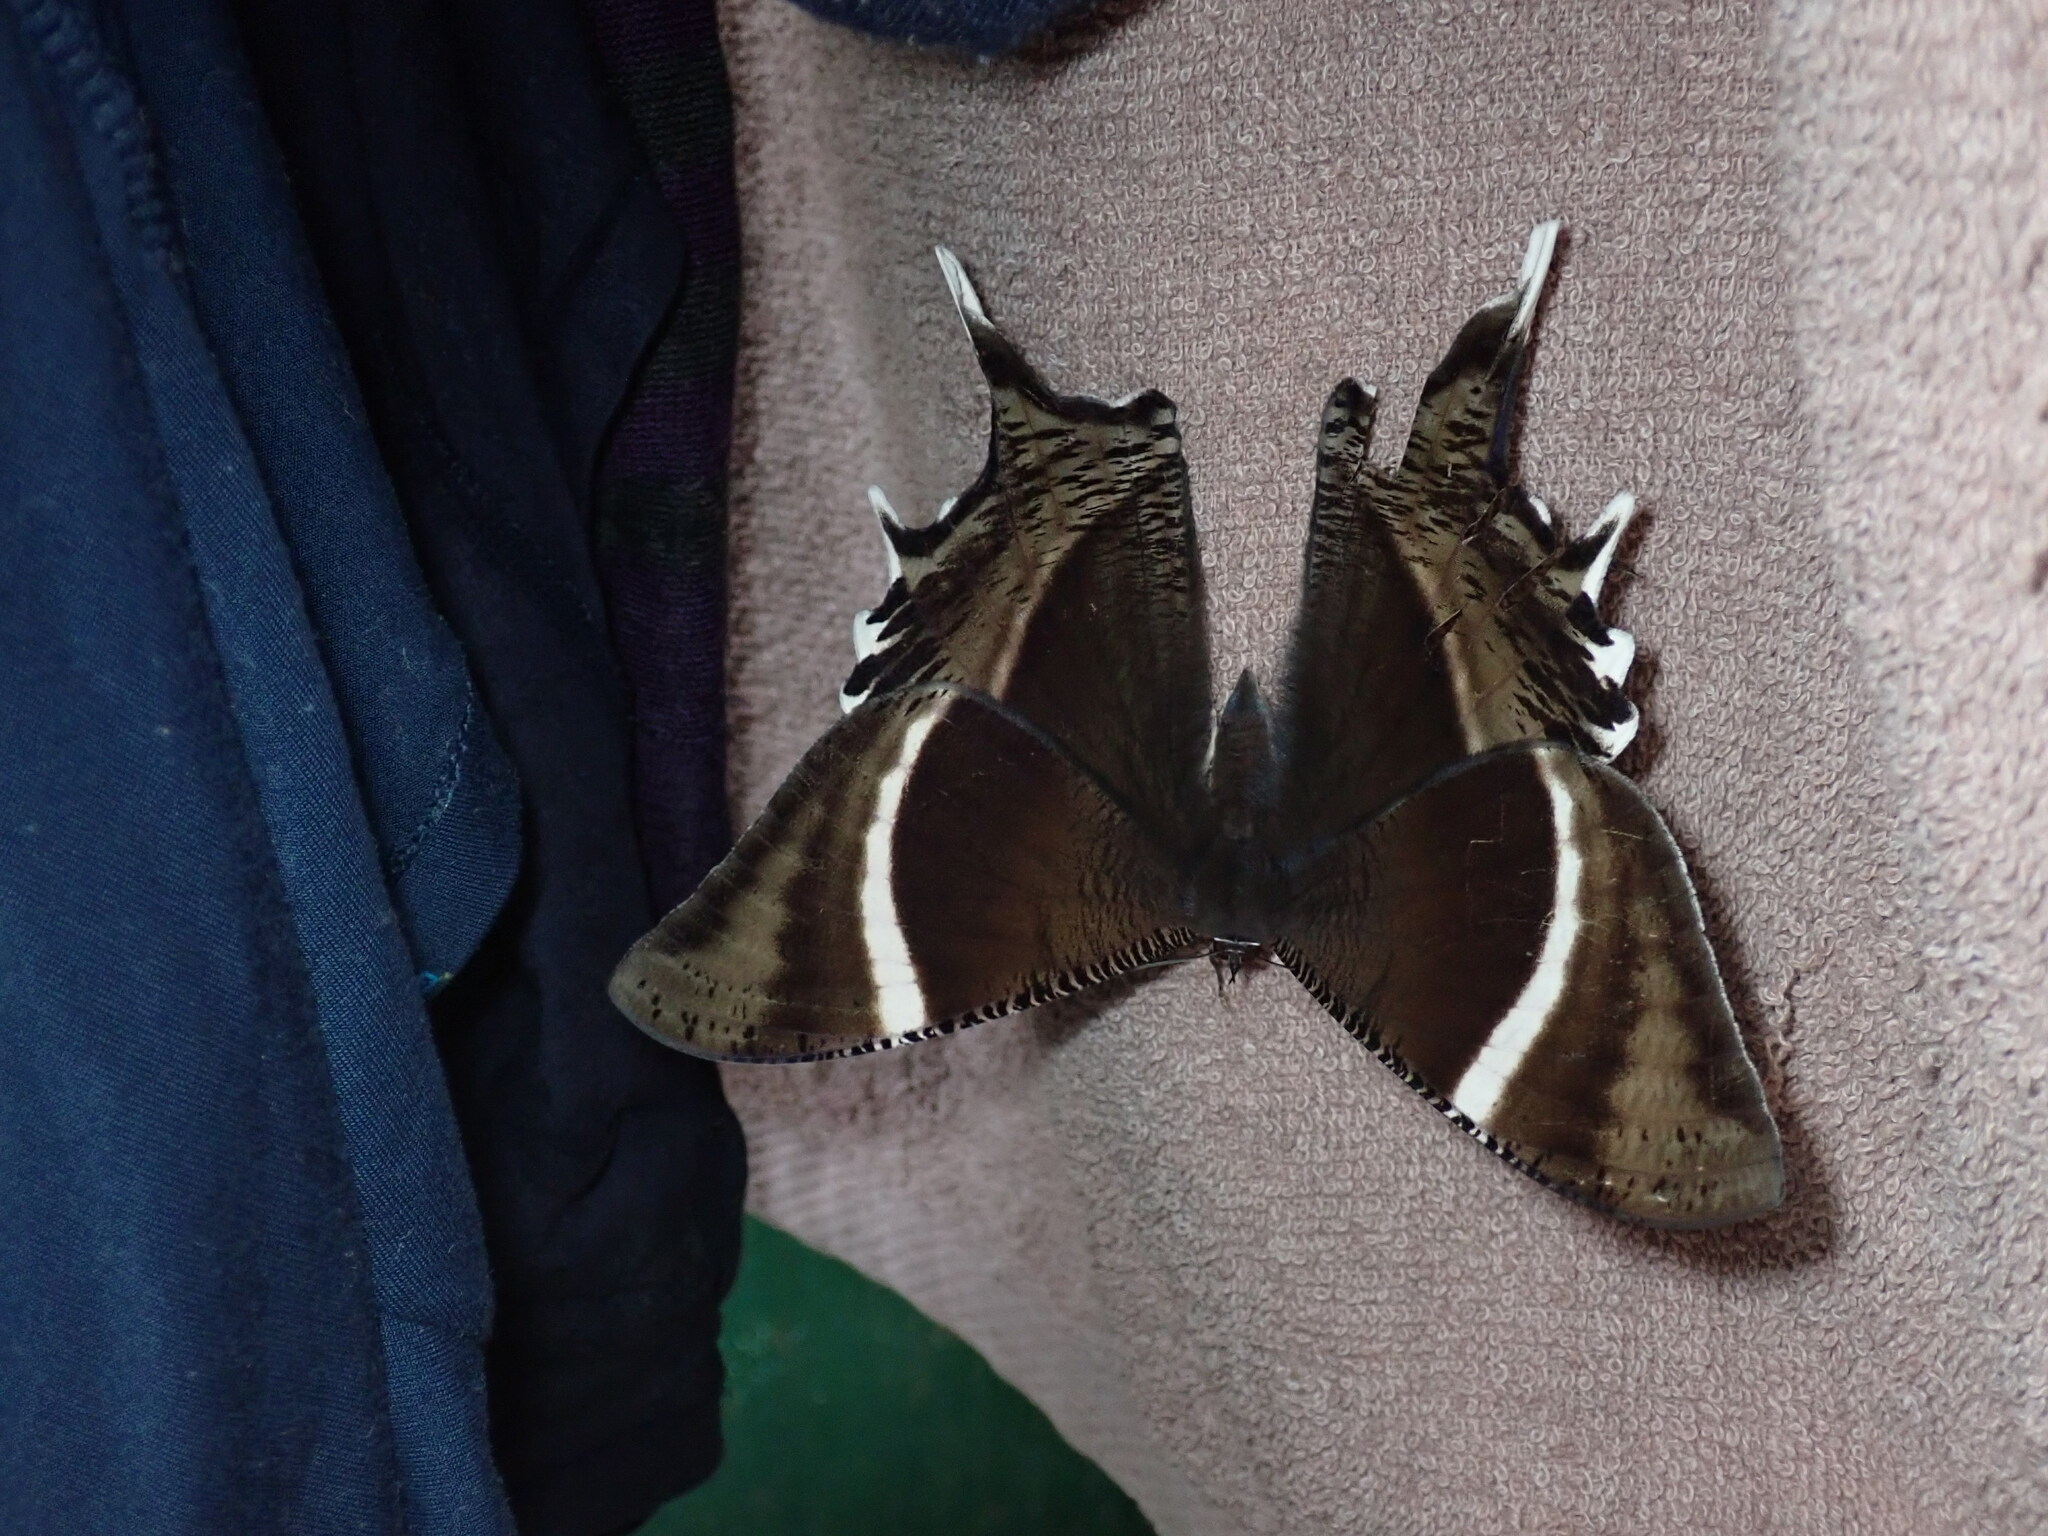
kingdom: Animalia
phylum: Arthropoda
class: Insecta
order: Lepidoptera
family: Uraniidae
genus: Lyssa
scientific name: Lyssa curvata
